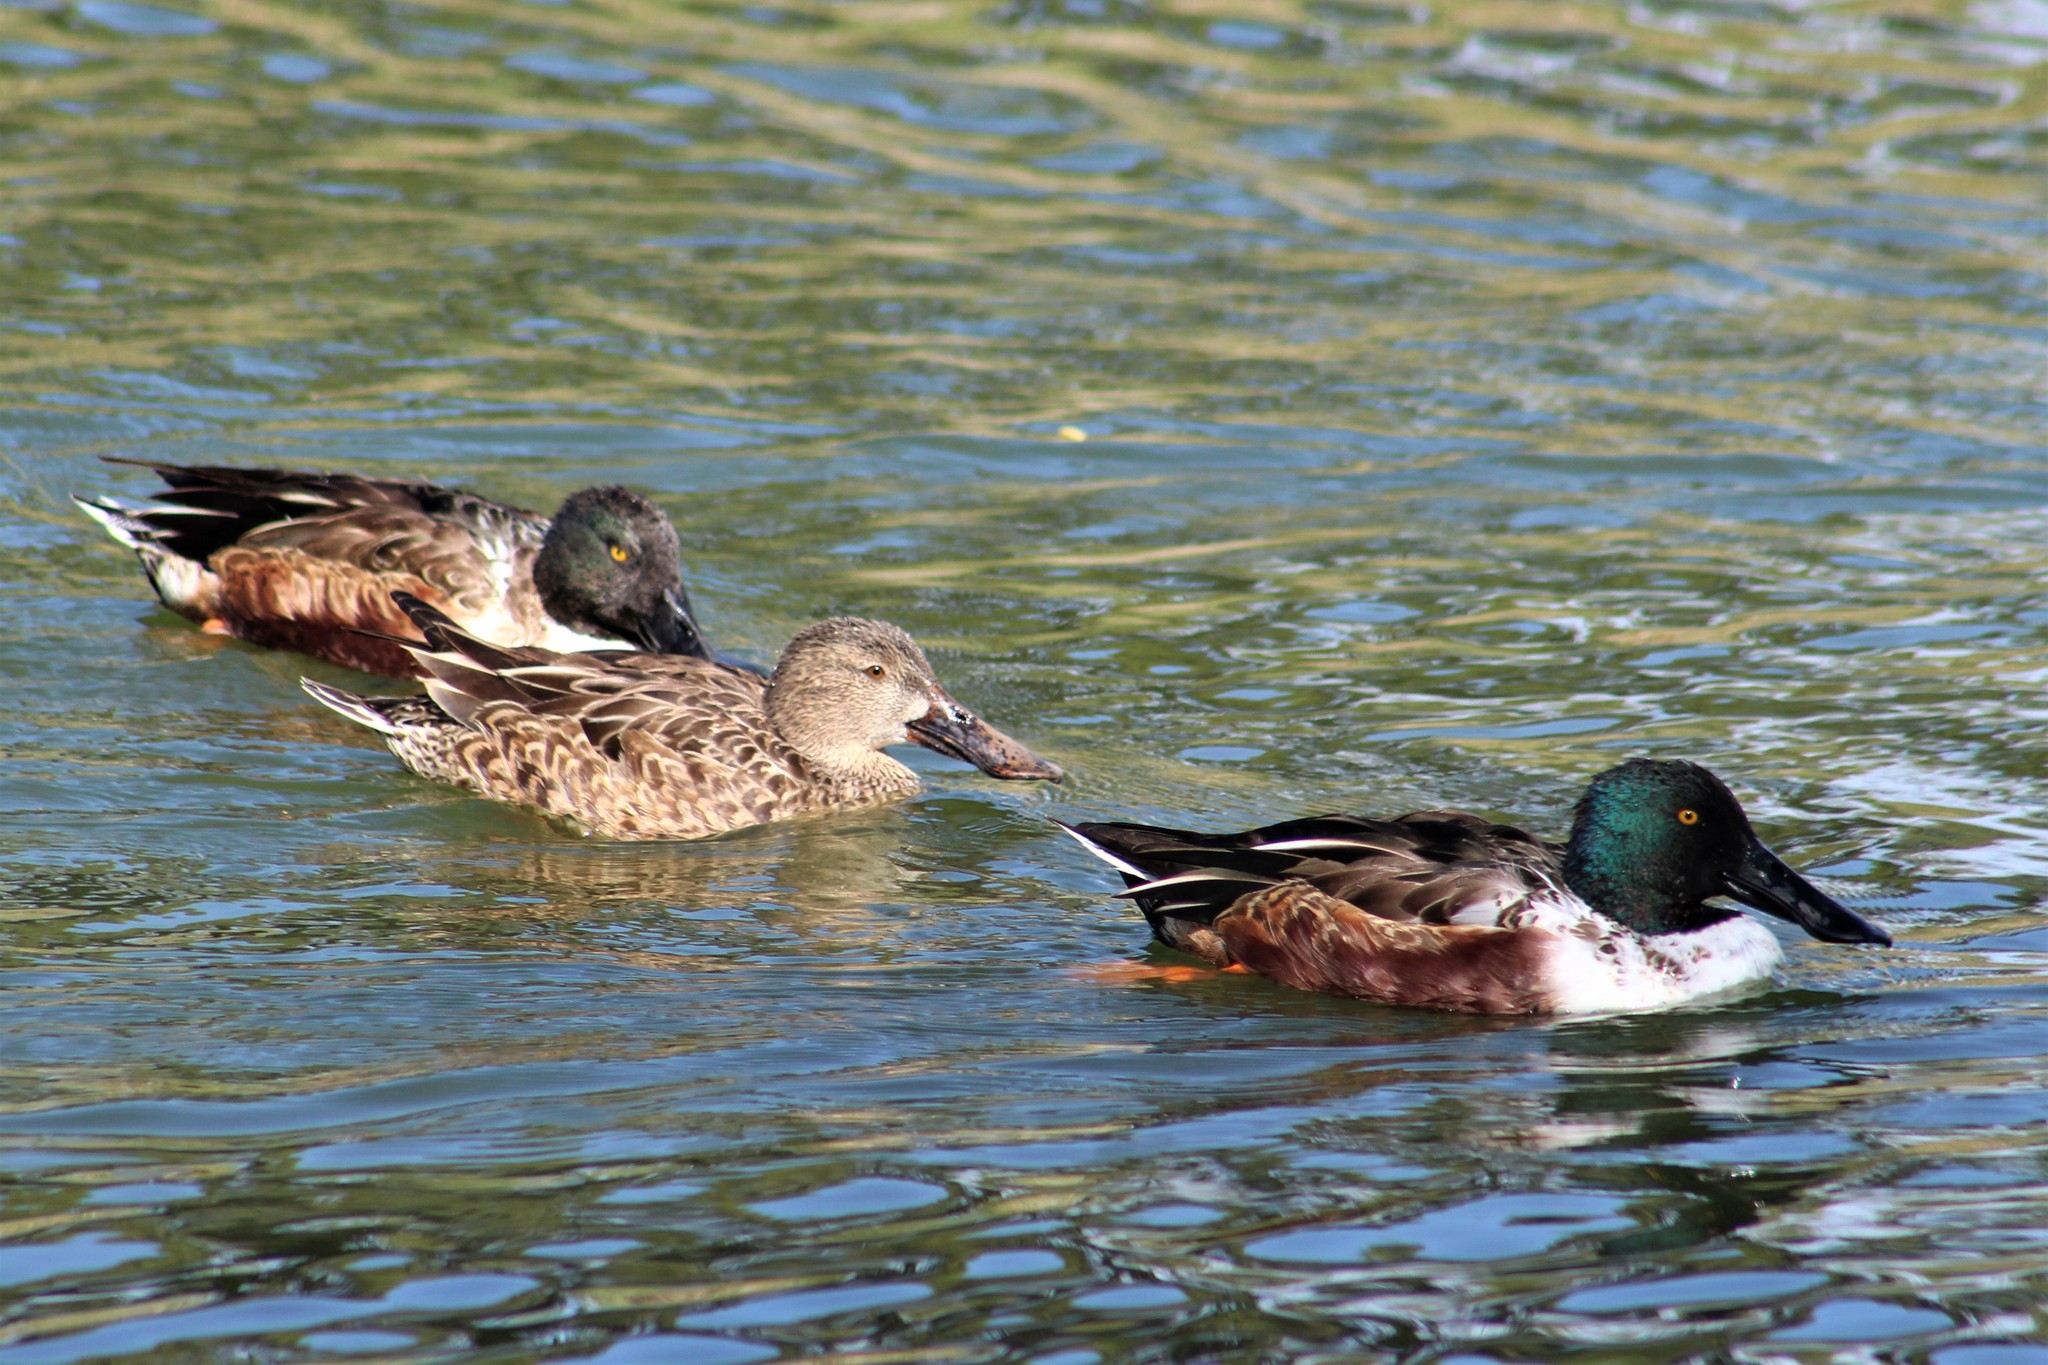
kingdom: Animalia
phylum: Chordata
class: Aves
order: Anseriformes
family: Anatidae
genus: Spatula
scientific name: Spatula clypeata
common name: Northern shoveler
